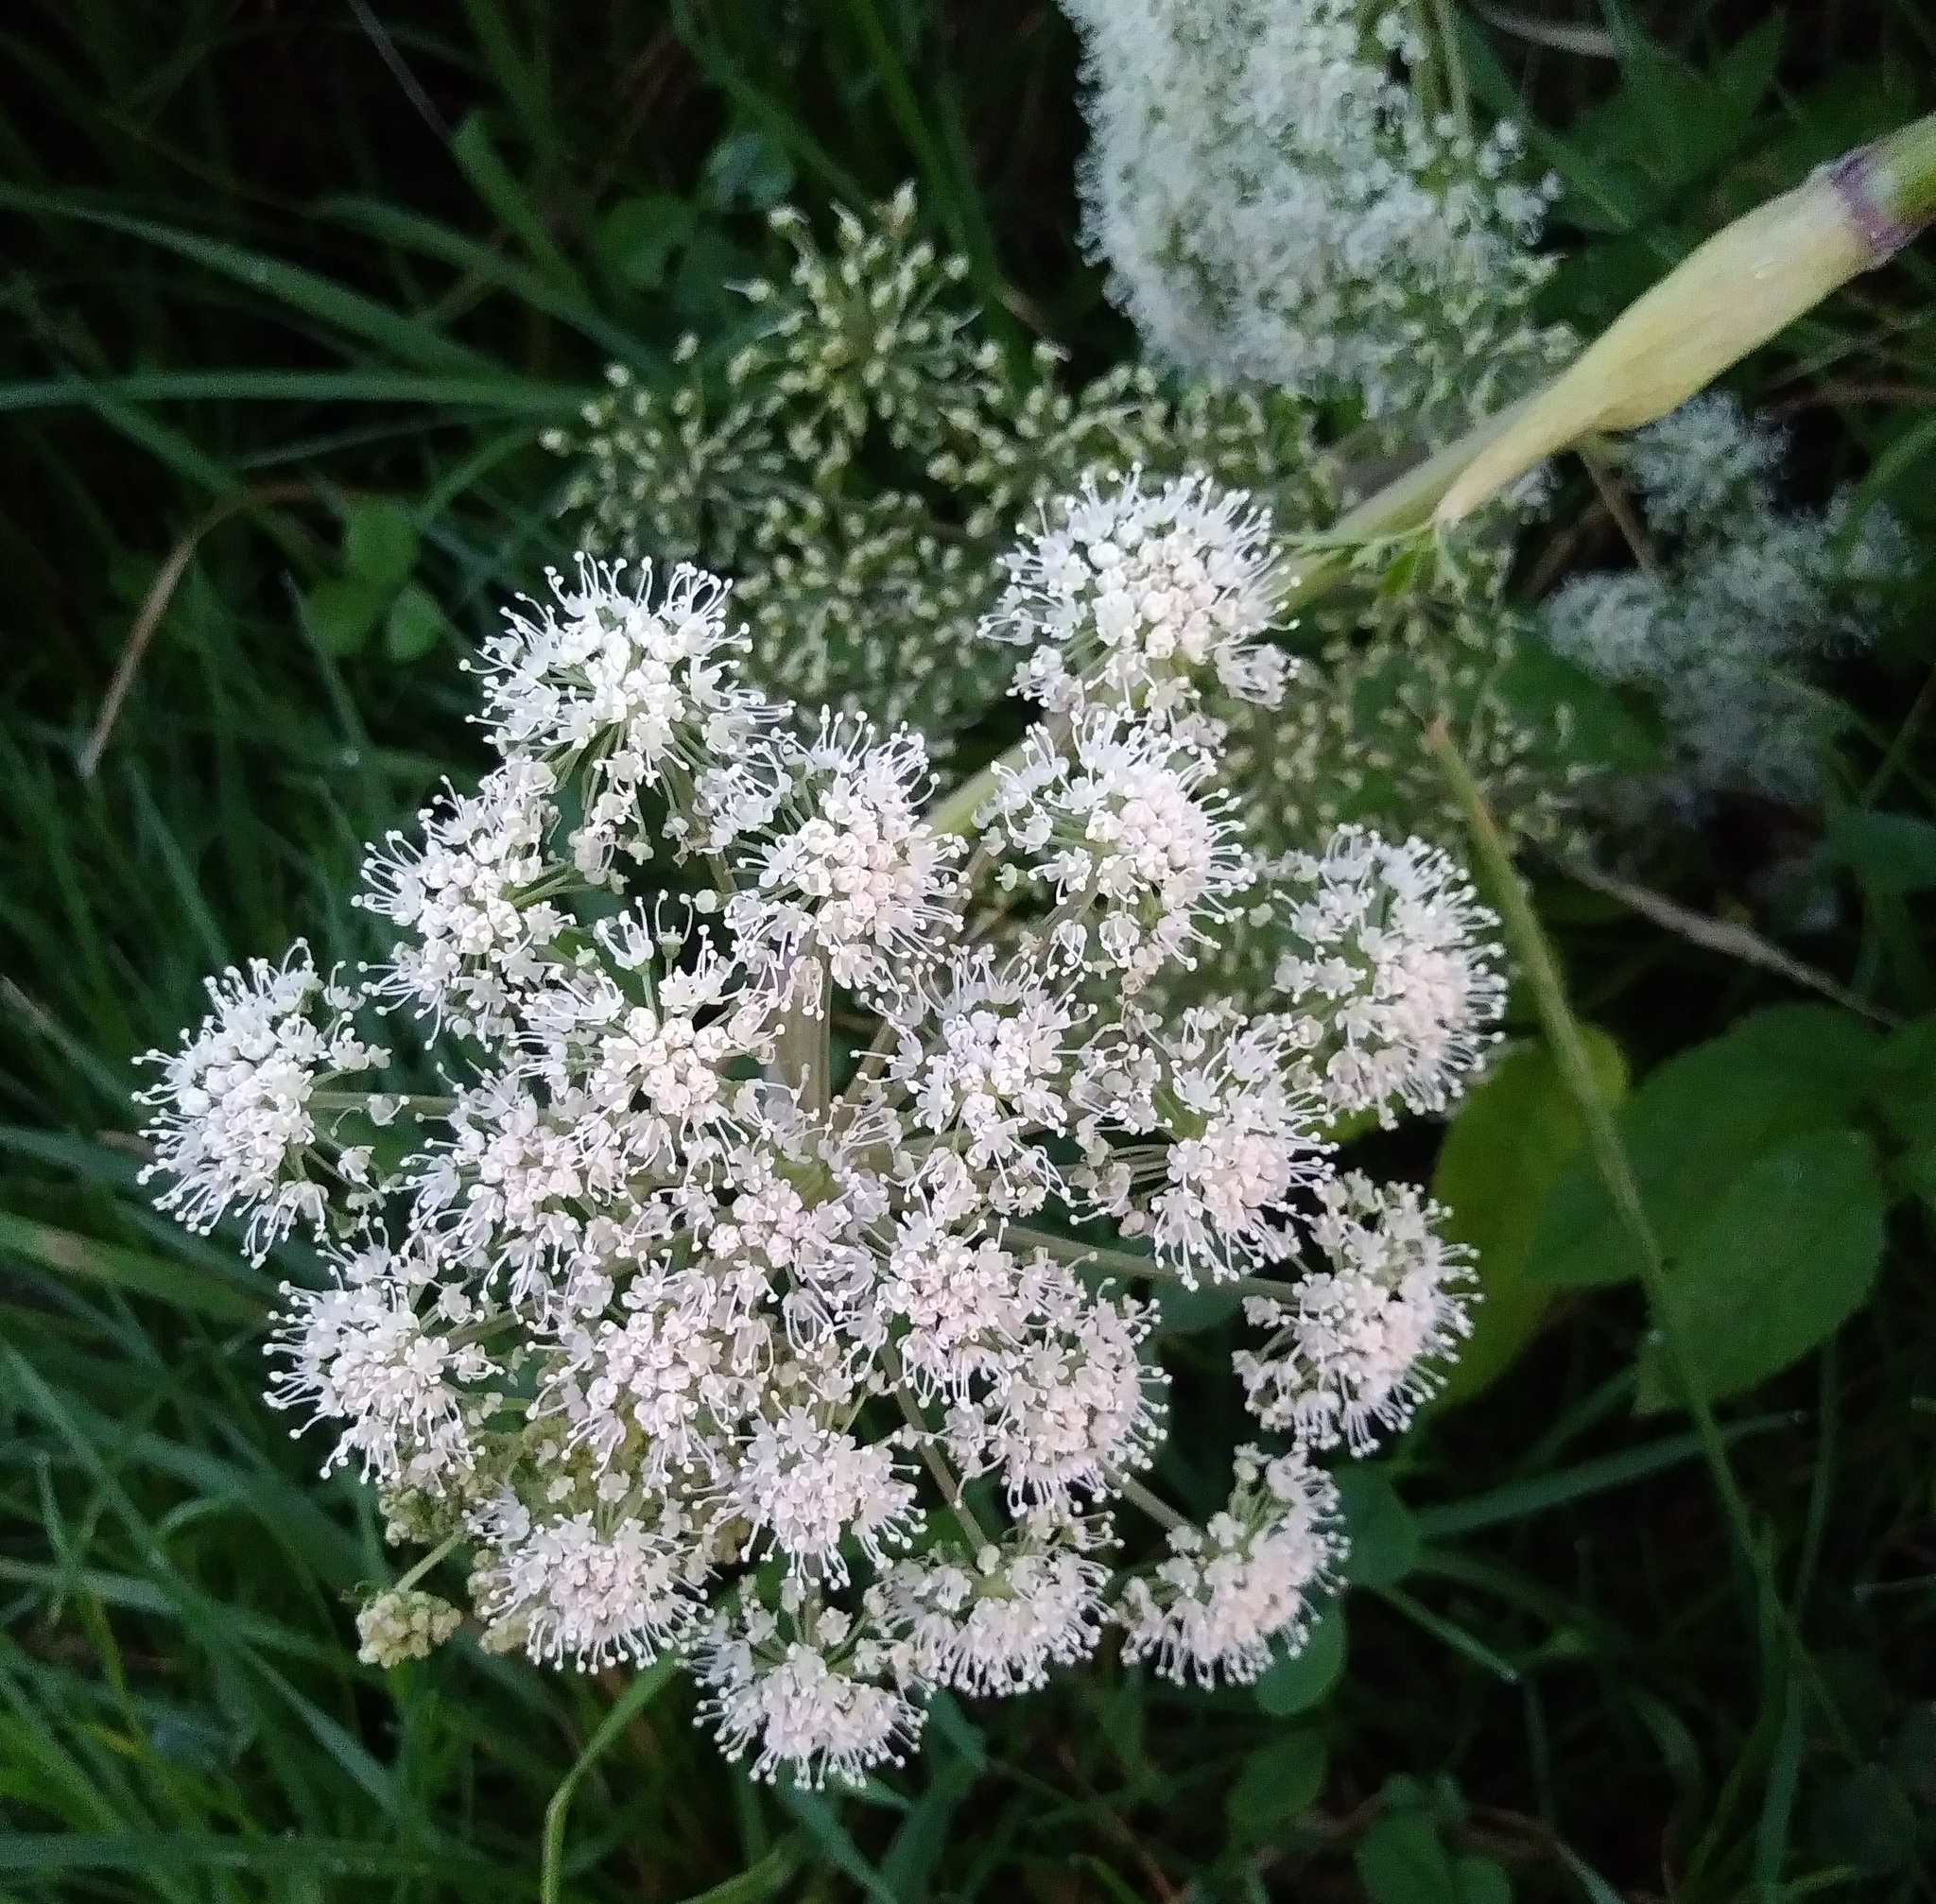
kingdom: Plantae
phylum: Tracheophyta
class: Magnoliopsida
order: Apiales
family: Apiaceae
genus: Angelica
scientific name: Angelica sylvestris
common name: Wild angelica
